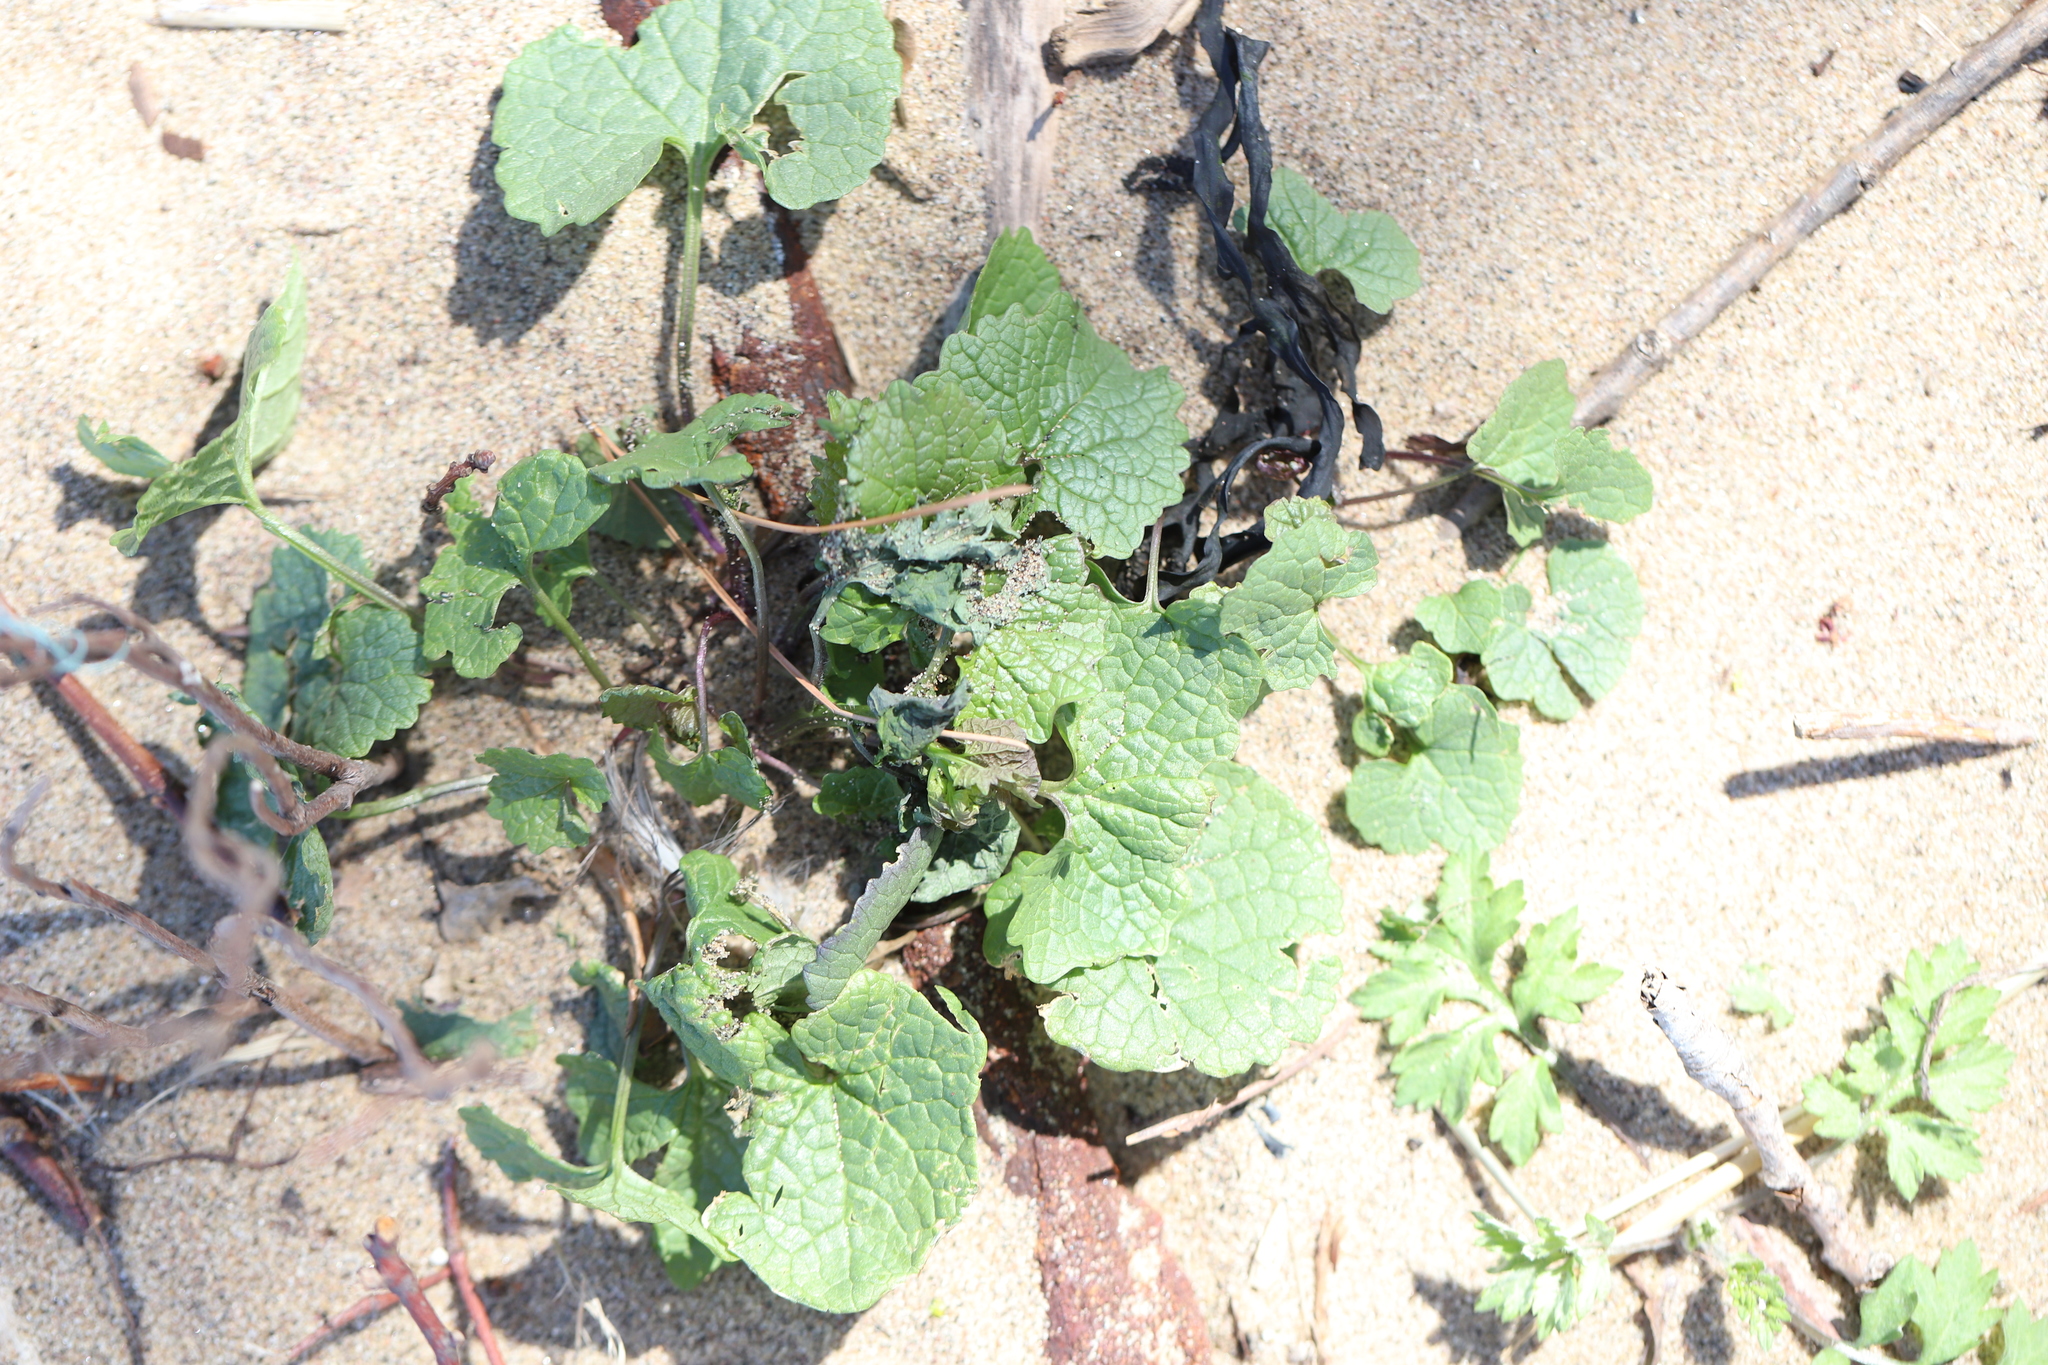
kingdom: Plantae
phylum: Tracheophyta
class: Magnoliopsida
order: Brassicales
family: Brassicaceae
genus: Alliaria
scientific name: Alliaria petiolata
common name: Garlic mustard
